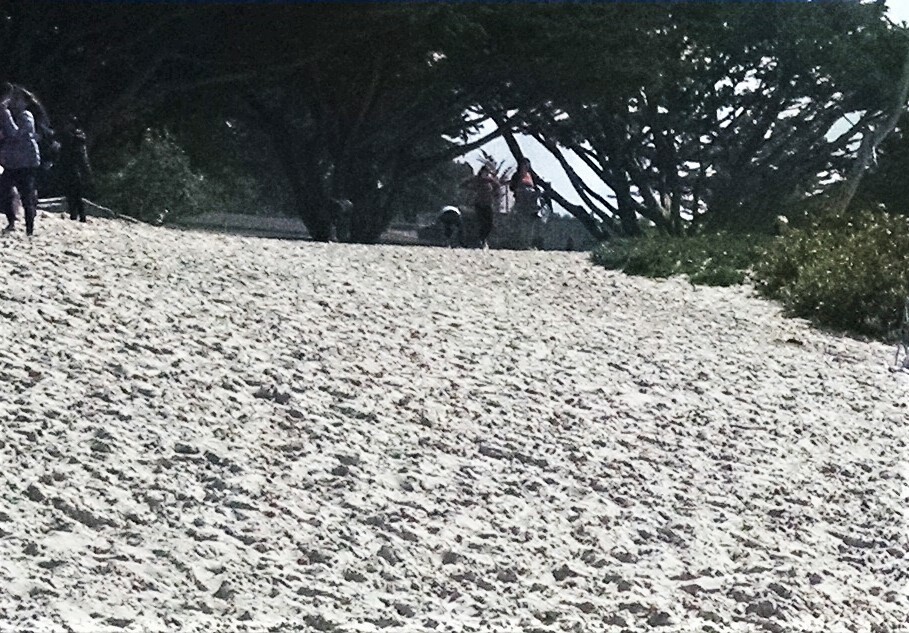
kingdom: Plantae
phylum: Tracheophyta
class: Pinopsida
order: Pinales
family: Cupressaceae
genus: Cupressus
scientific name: Cupressus macrocarpa
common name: Monterey cypress
